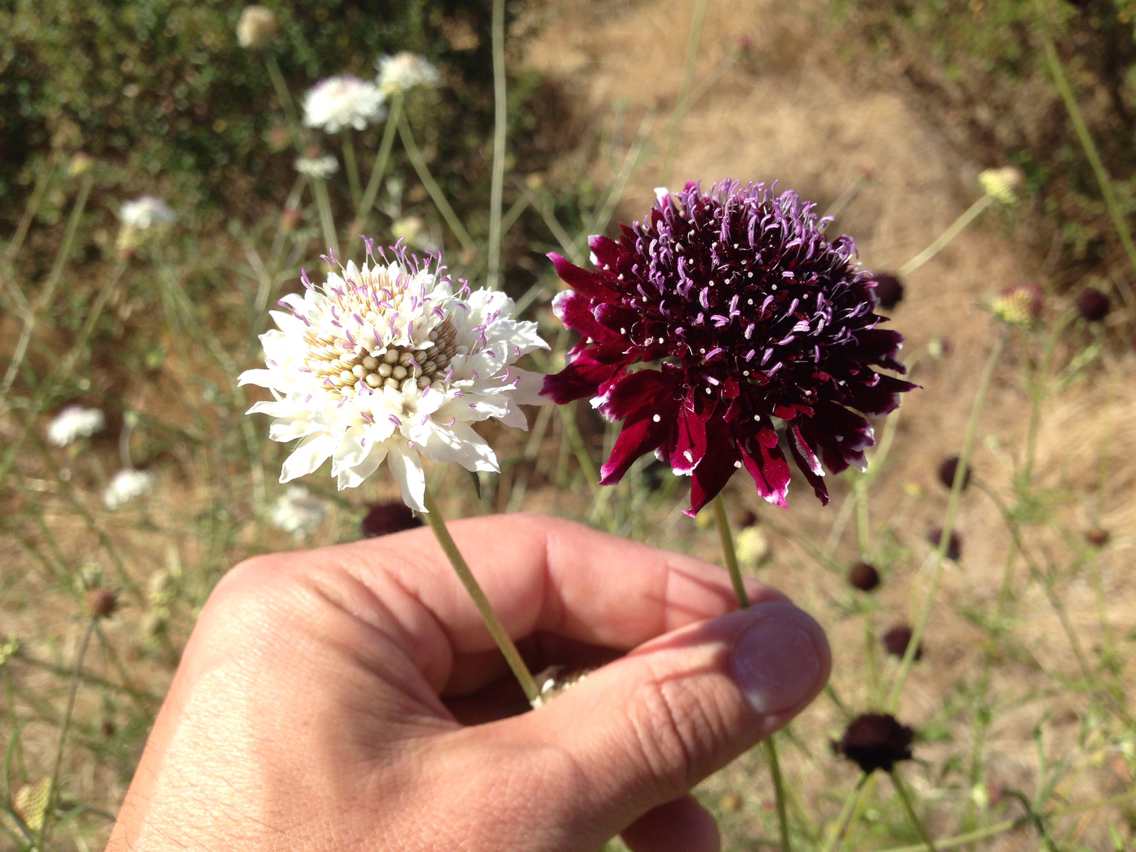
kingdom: Plantae
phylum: Tracheophyta
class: Magnoliopsida
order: Dipsacales
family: Caprifoliaceae
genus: Sixalix
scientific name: Sixalix atropurpurea
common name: Sweet scabious
